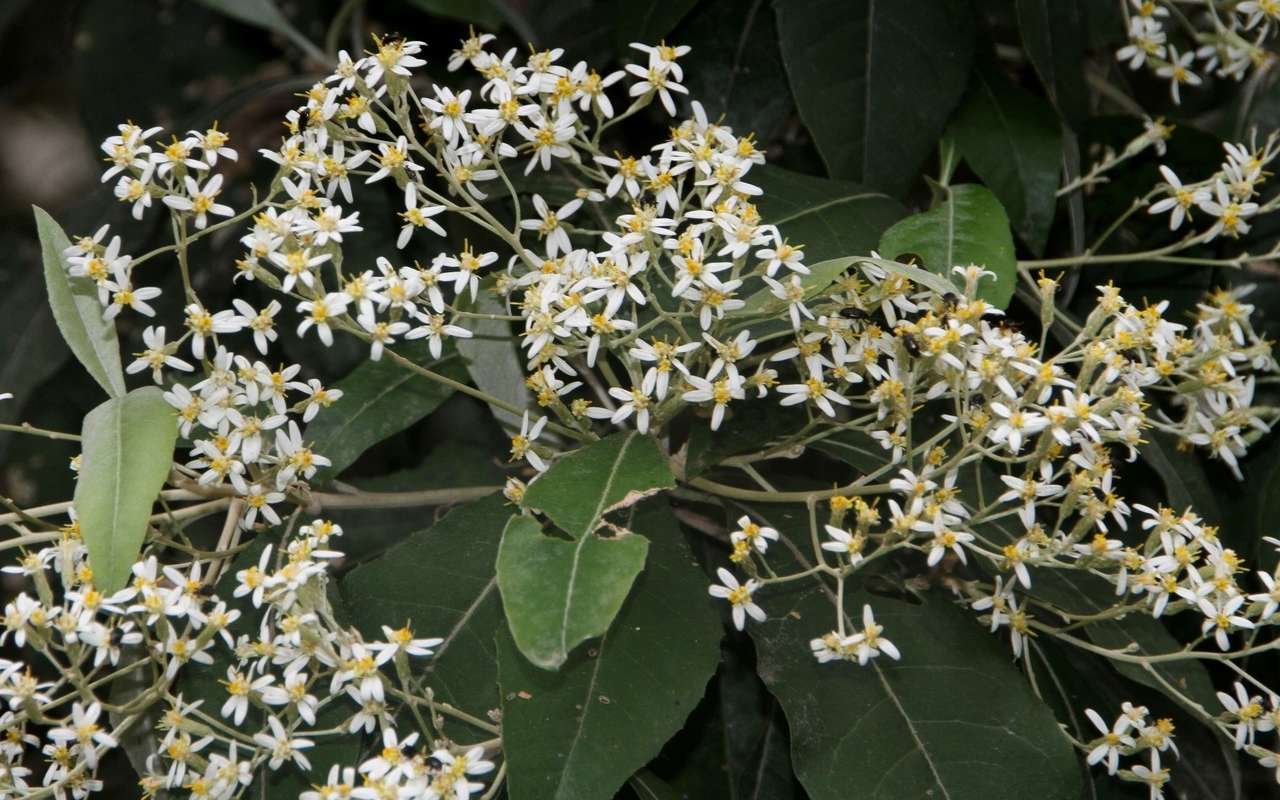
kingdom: Plantae
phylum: Tracheophyta
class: Magnoliopsida
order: Asterales
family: Asteraceae
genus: Olearia
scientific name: Olearia argophylla
